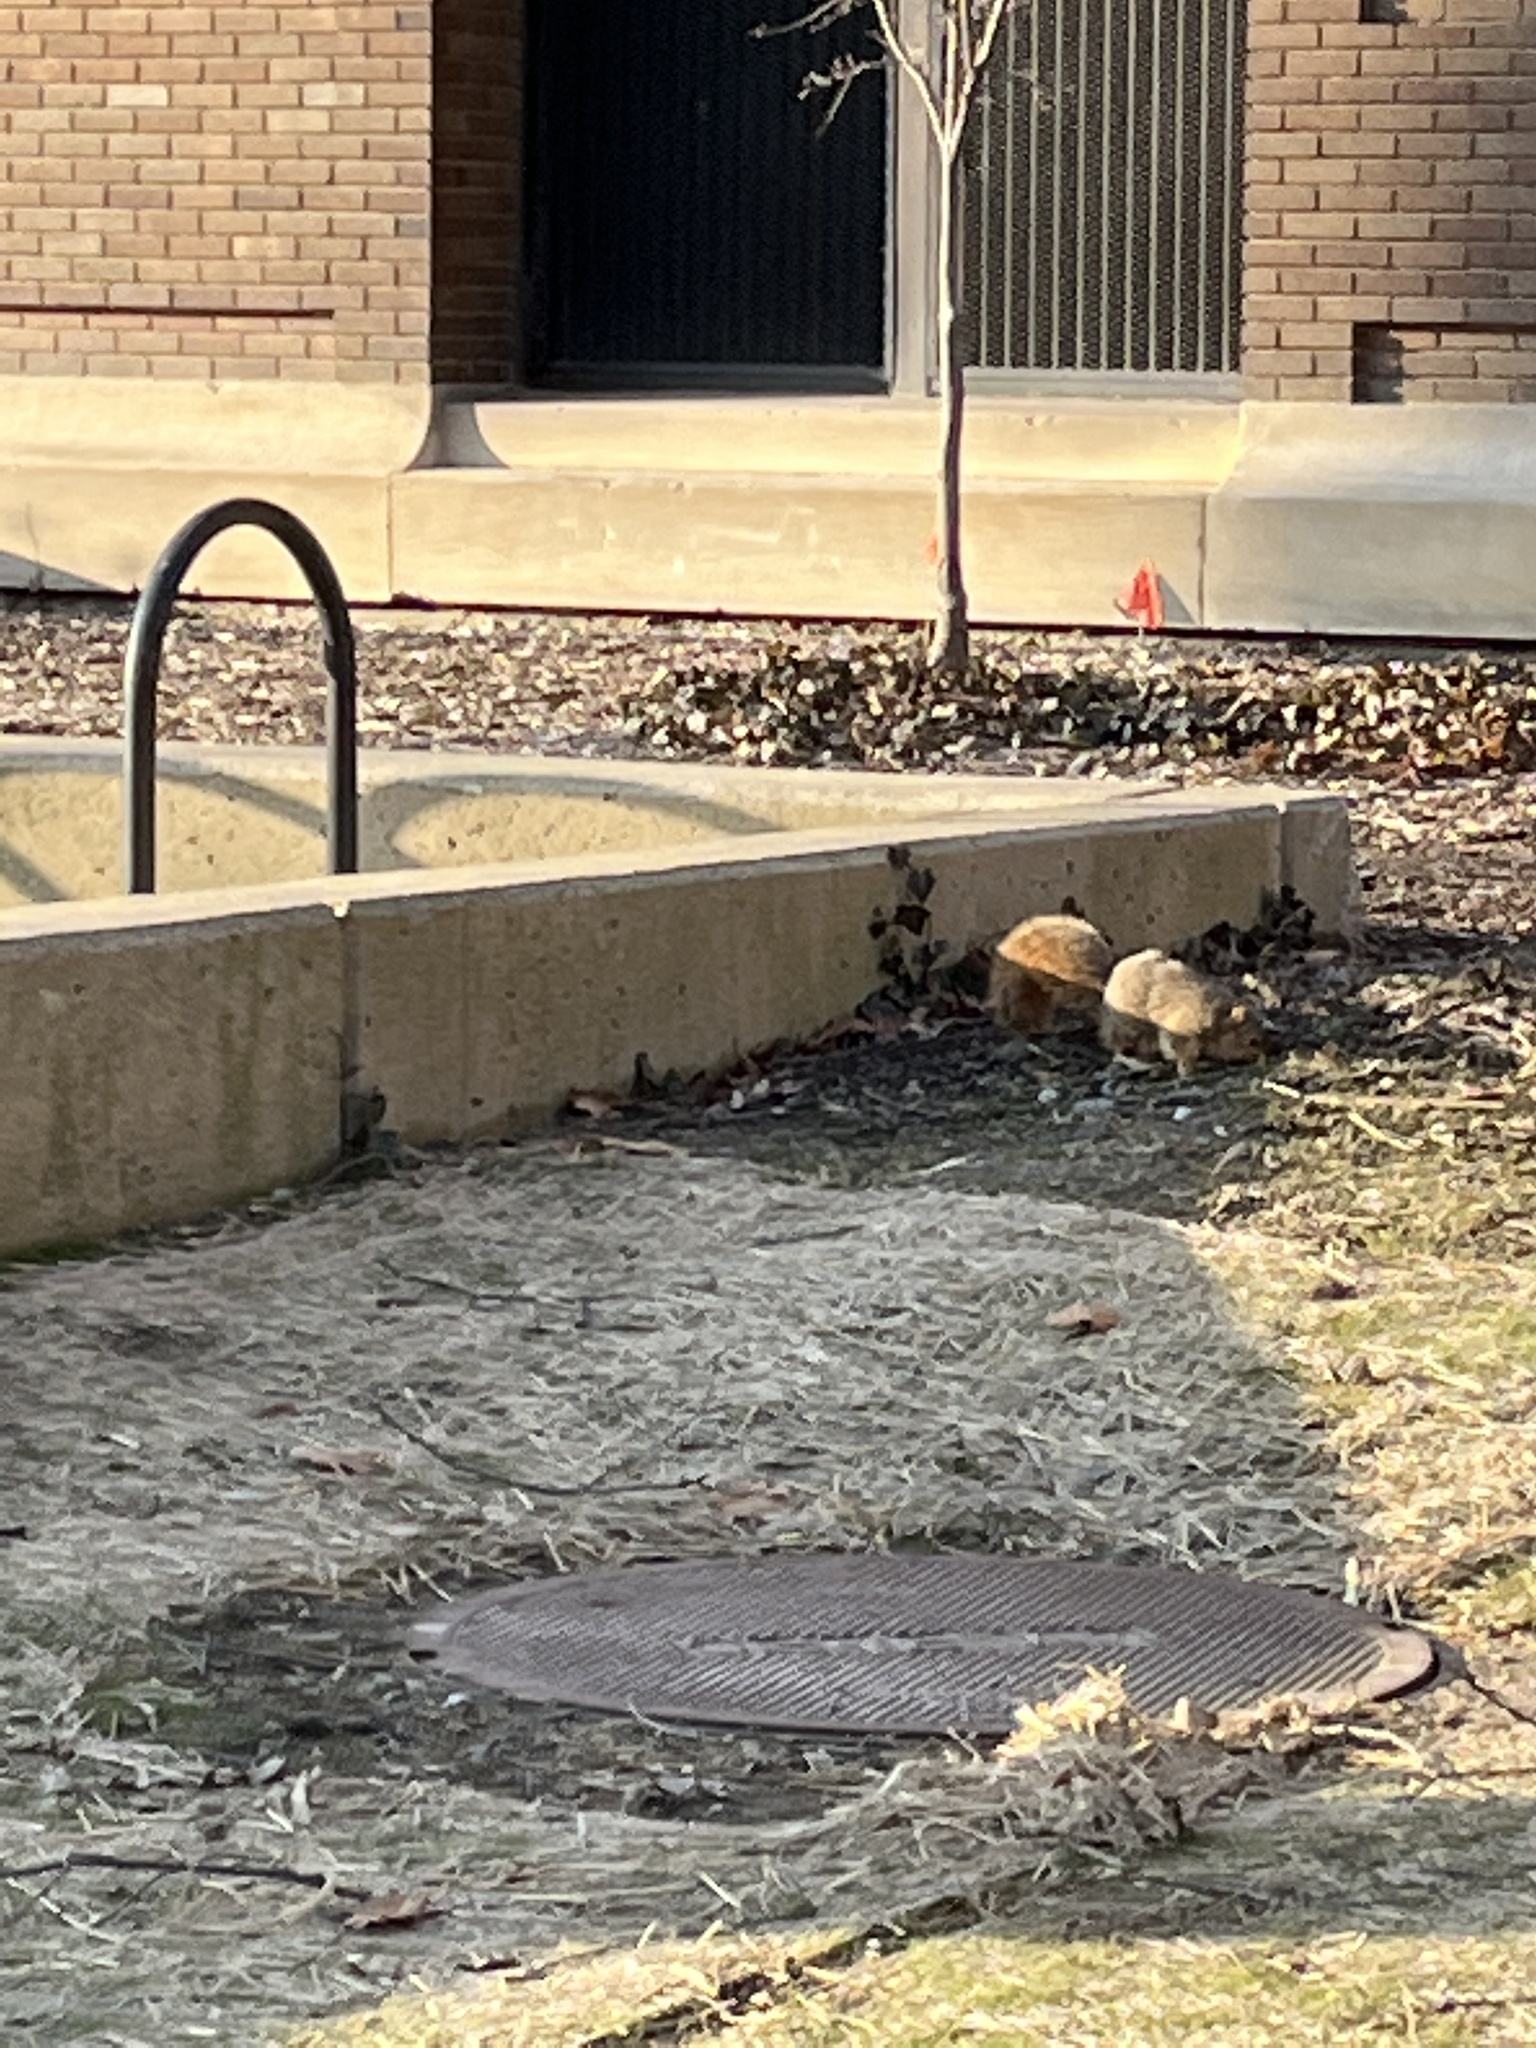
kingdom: Animalia
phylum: Chordata
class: Mammalia
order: Rodentia
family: Sciuridae
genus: Sciurus
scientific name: Sciurus niger
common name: Fox squirrel
